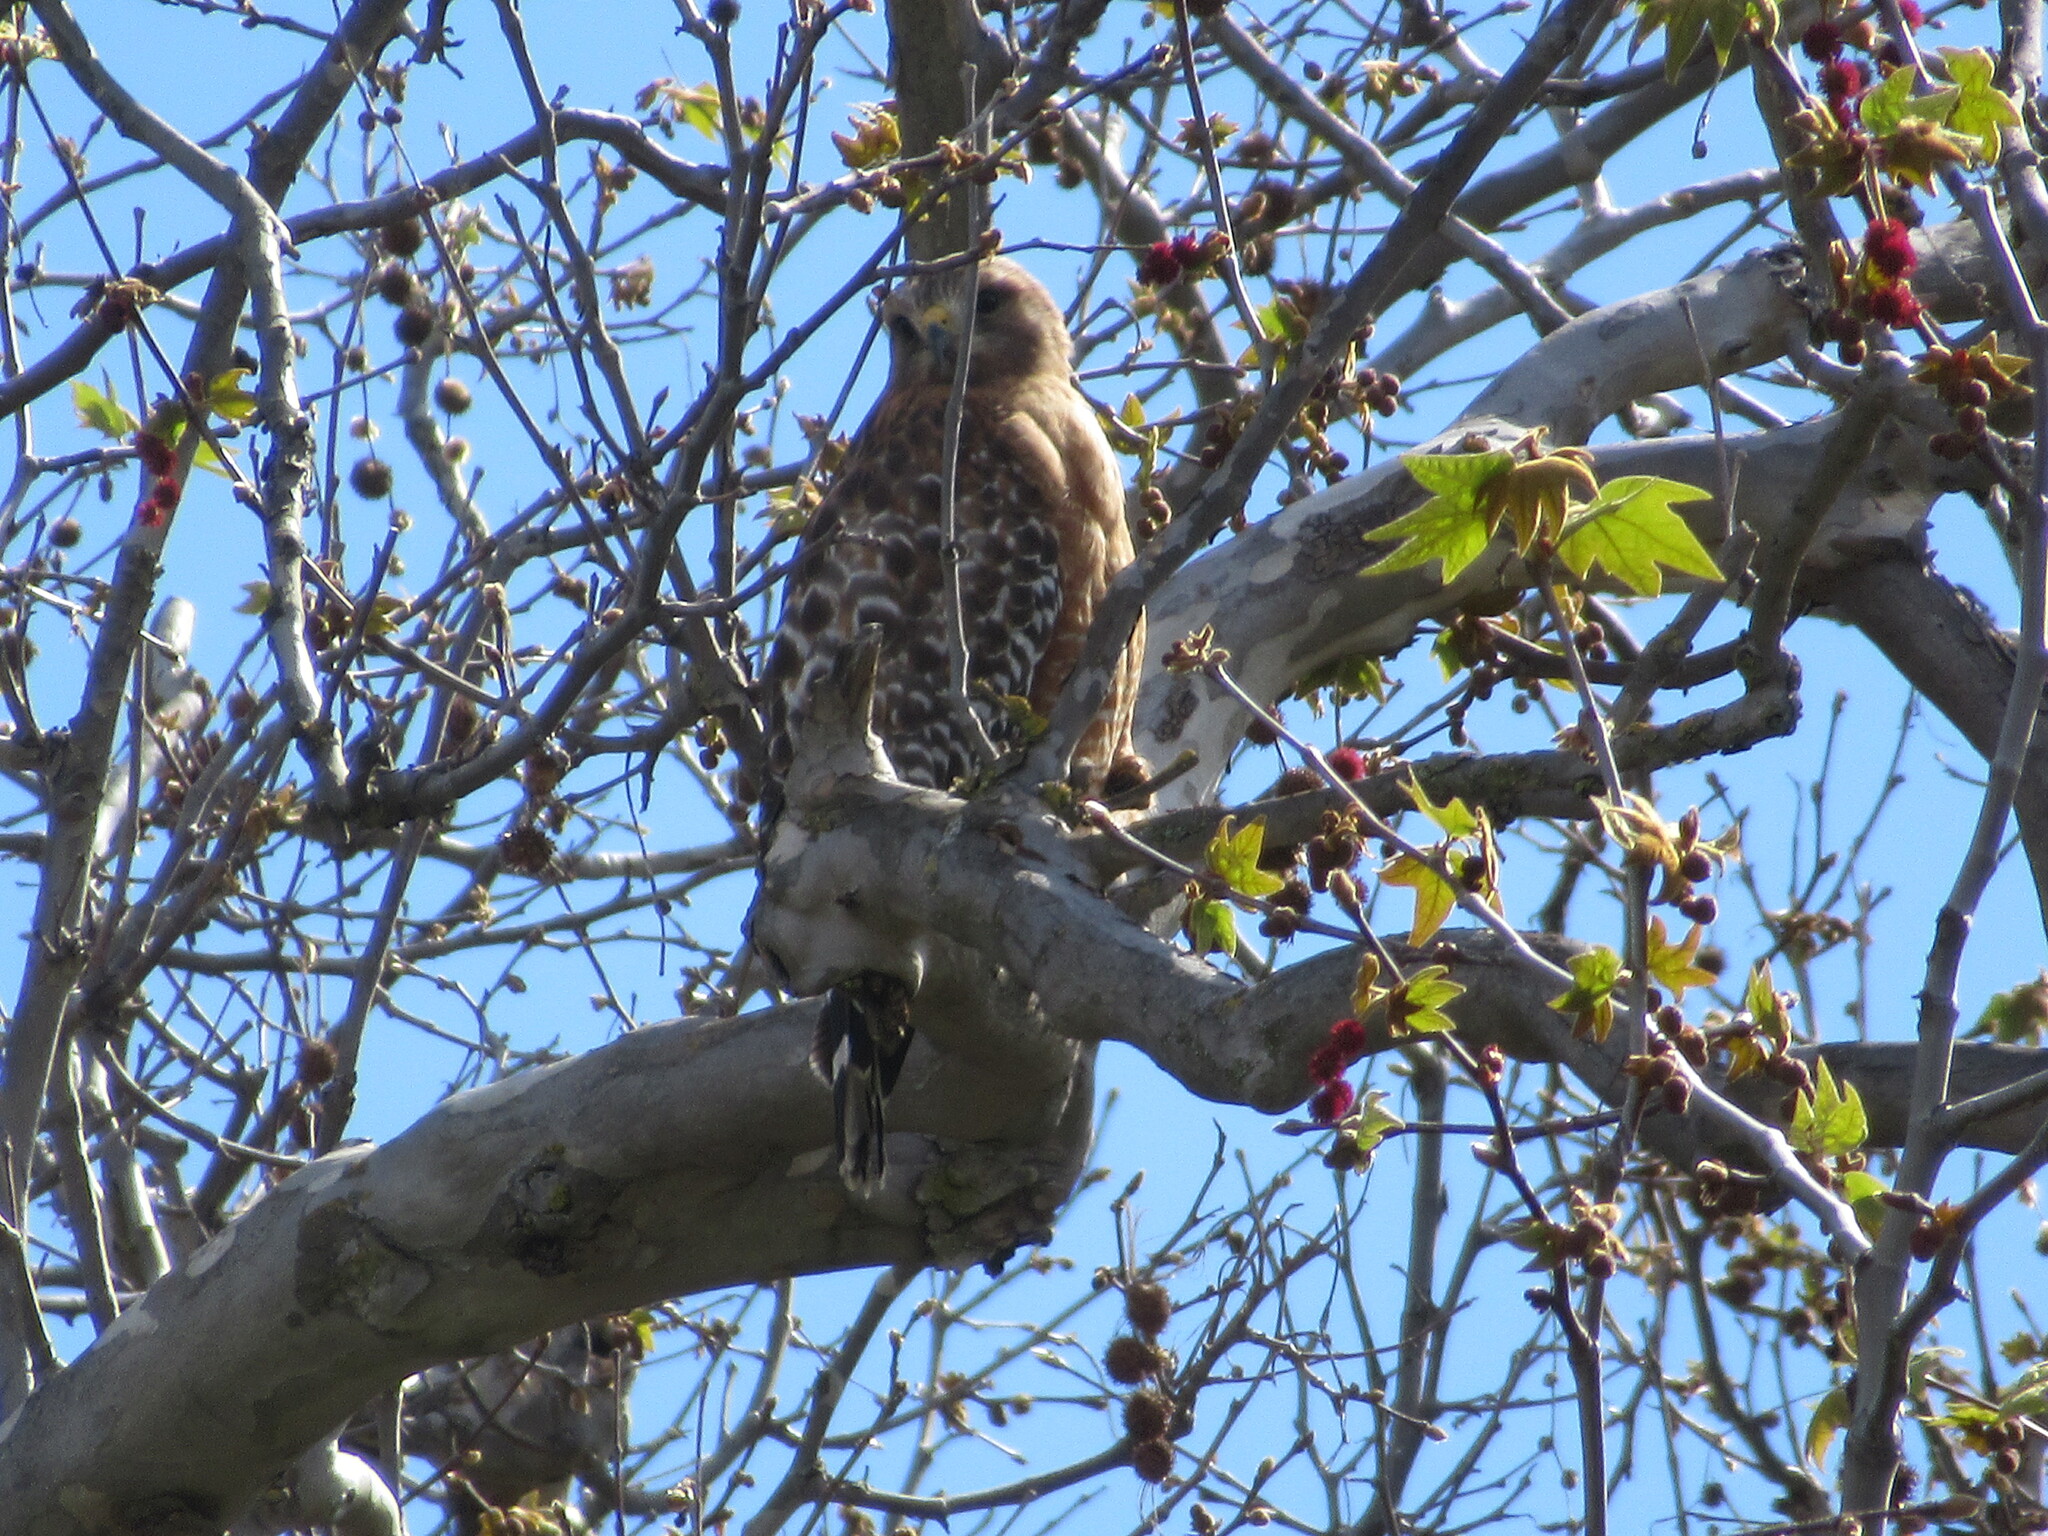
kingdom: Animalia
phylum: Chordata
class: Aves
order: Accipitriformes
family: Accipitridae
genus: Buteo
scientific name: Buteo lineatus
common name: Red-shouldered hawk
